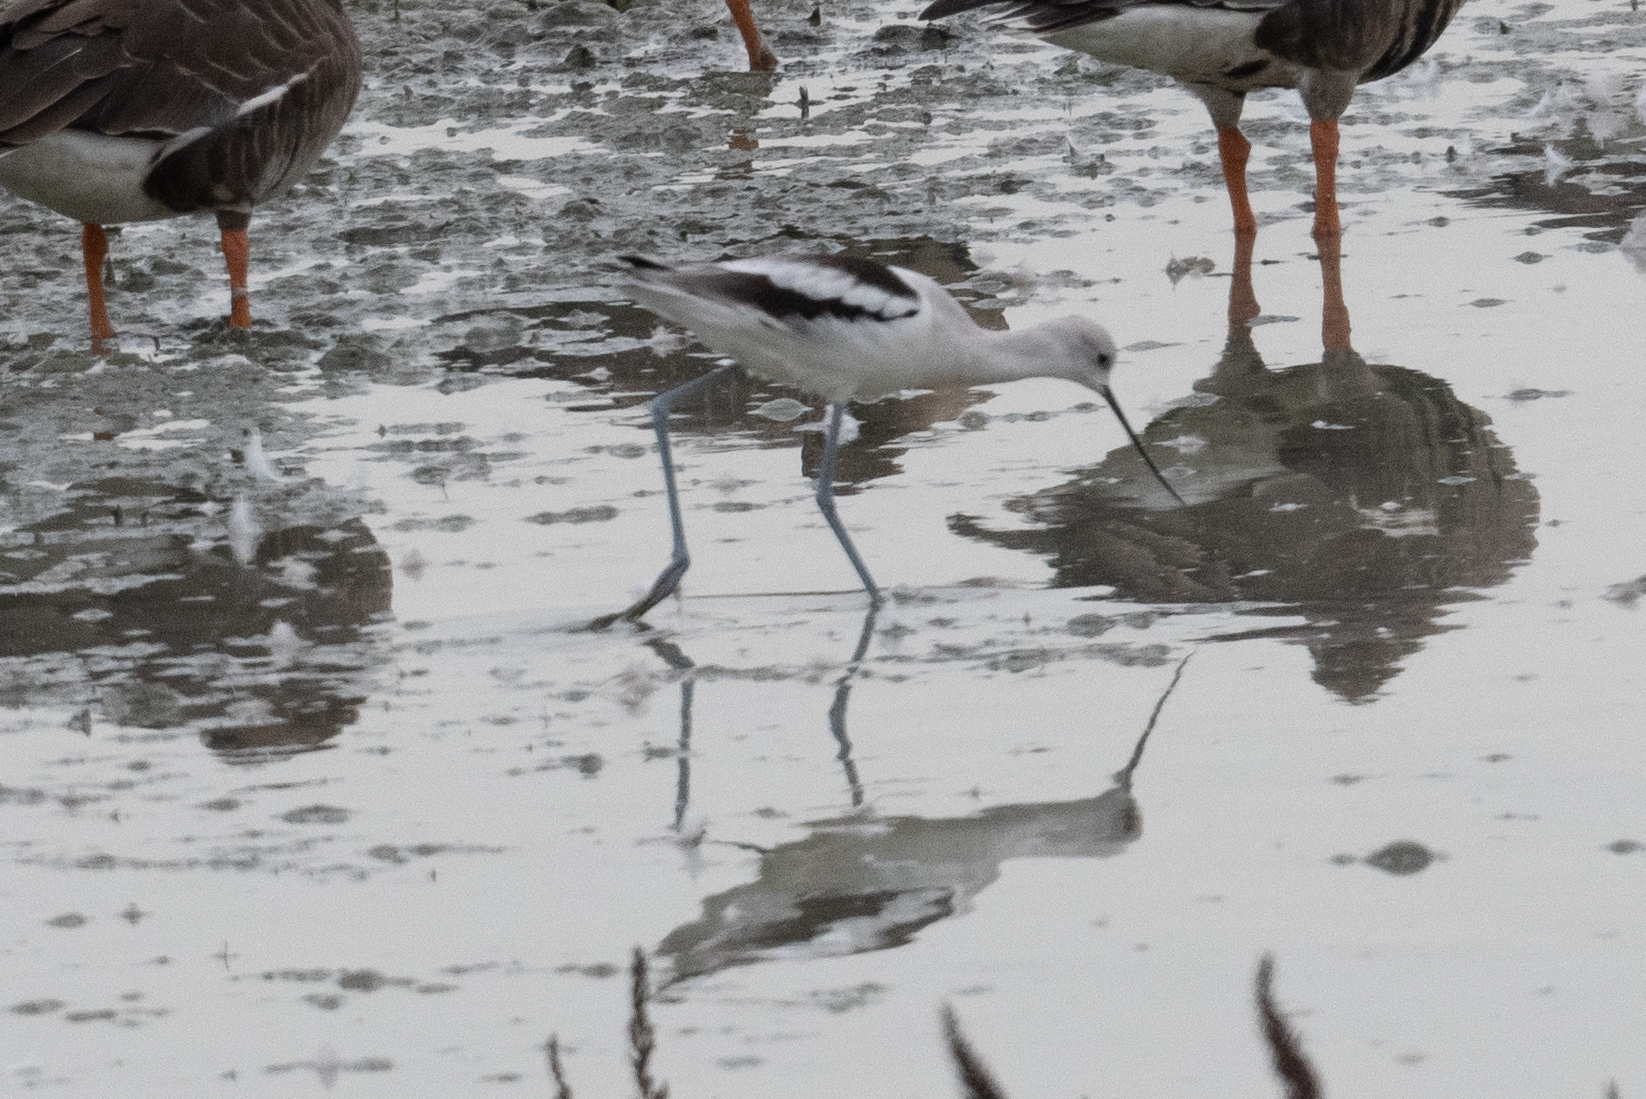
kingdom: Animalia
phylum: Chordata
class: Aves
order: Charadriiformes
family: Recurvirostridae
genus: Recurvirostra
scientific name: Recurvirostra americana
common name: American avocet
